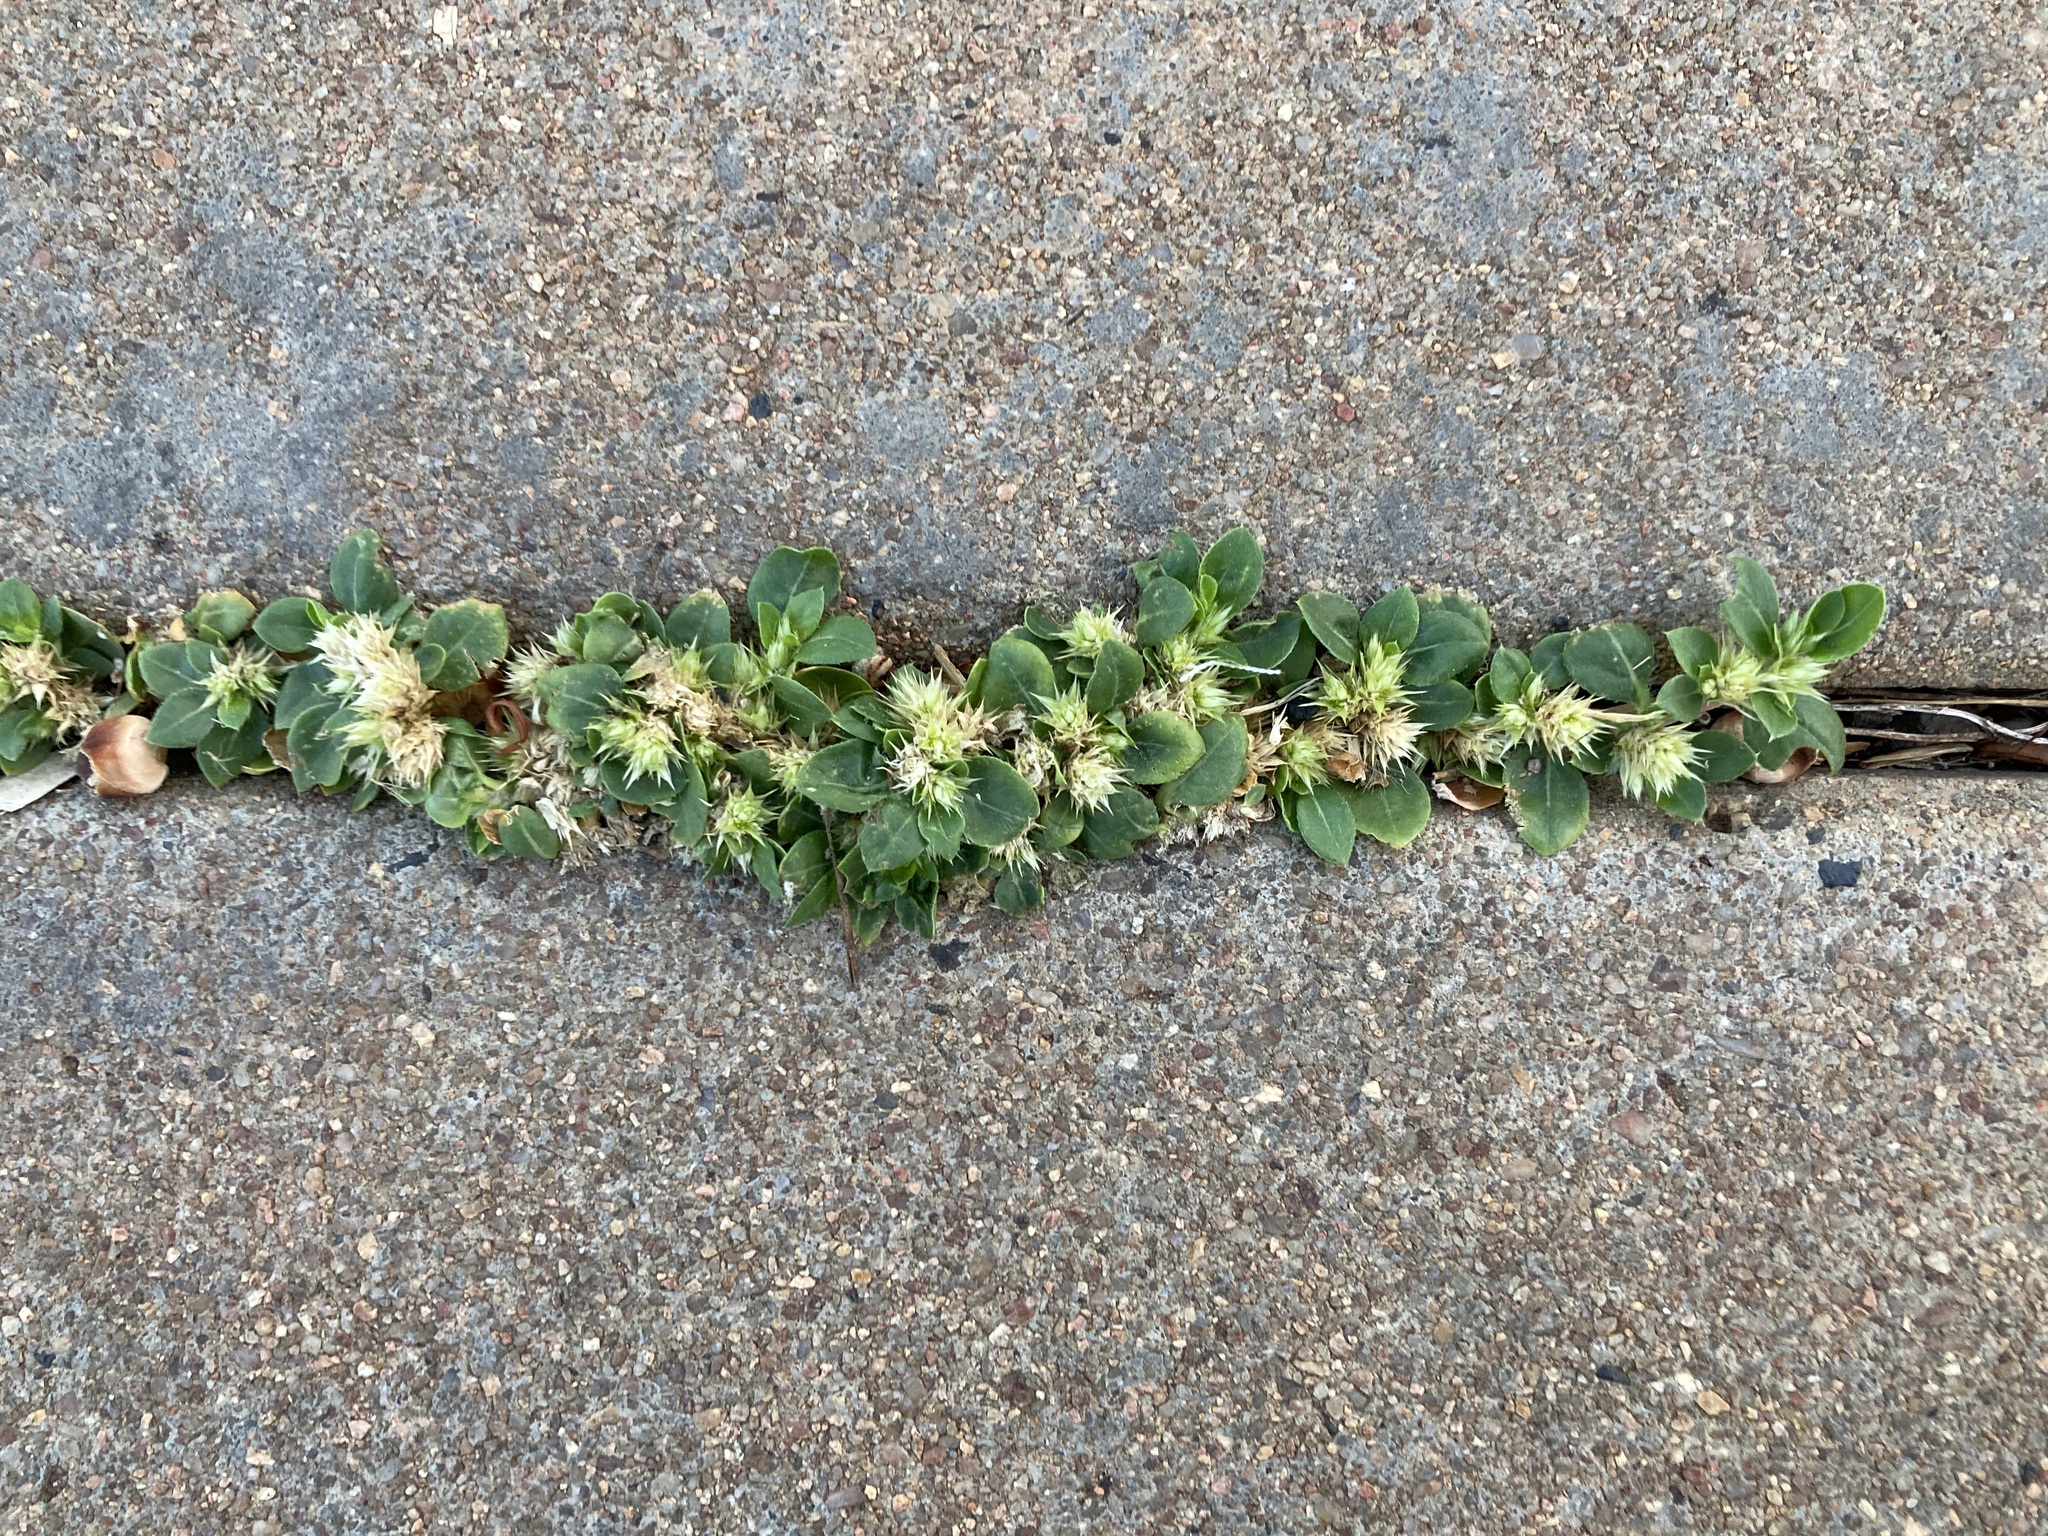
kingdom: Plantae
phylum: Tracheophyta
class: Magnoliopsida
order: Caryophyllales
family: Amaranthaceae
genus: Alternanthera
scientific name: Alternanthera pungens
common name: Khakiweed
